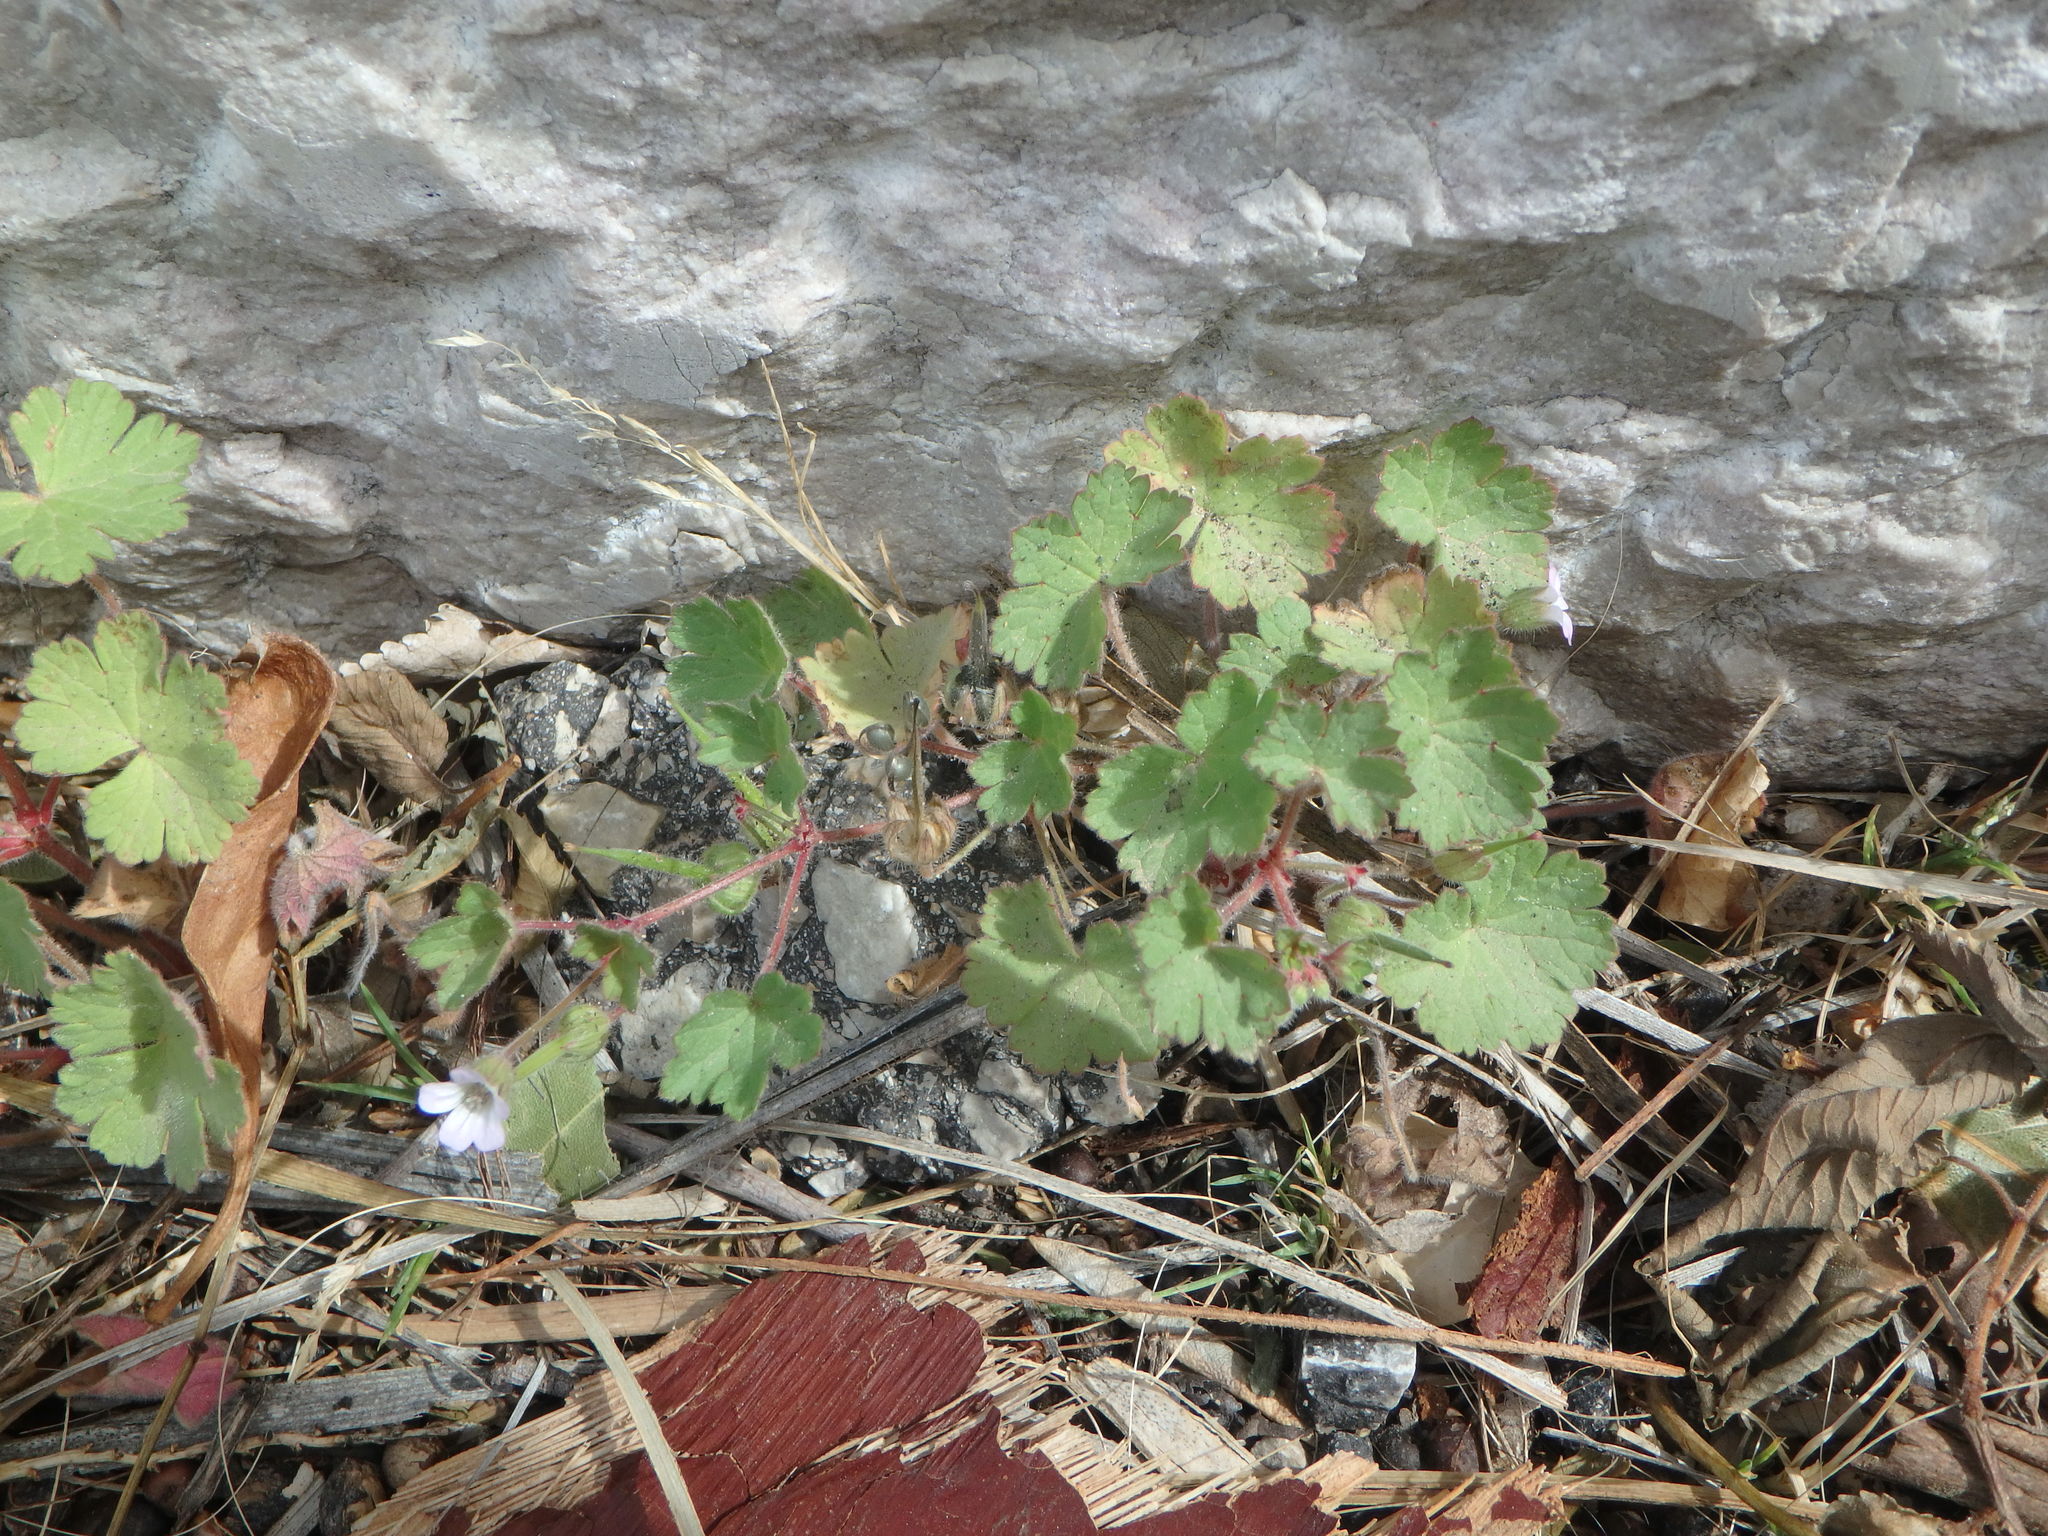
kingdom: Plantae
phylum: Tracheophyta
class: Magnoliopsida
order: Geraniales
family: Geraniaceae
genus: Geranium
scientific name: Geranium rotundifolium
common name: Round-leaved crane's-bill
